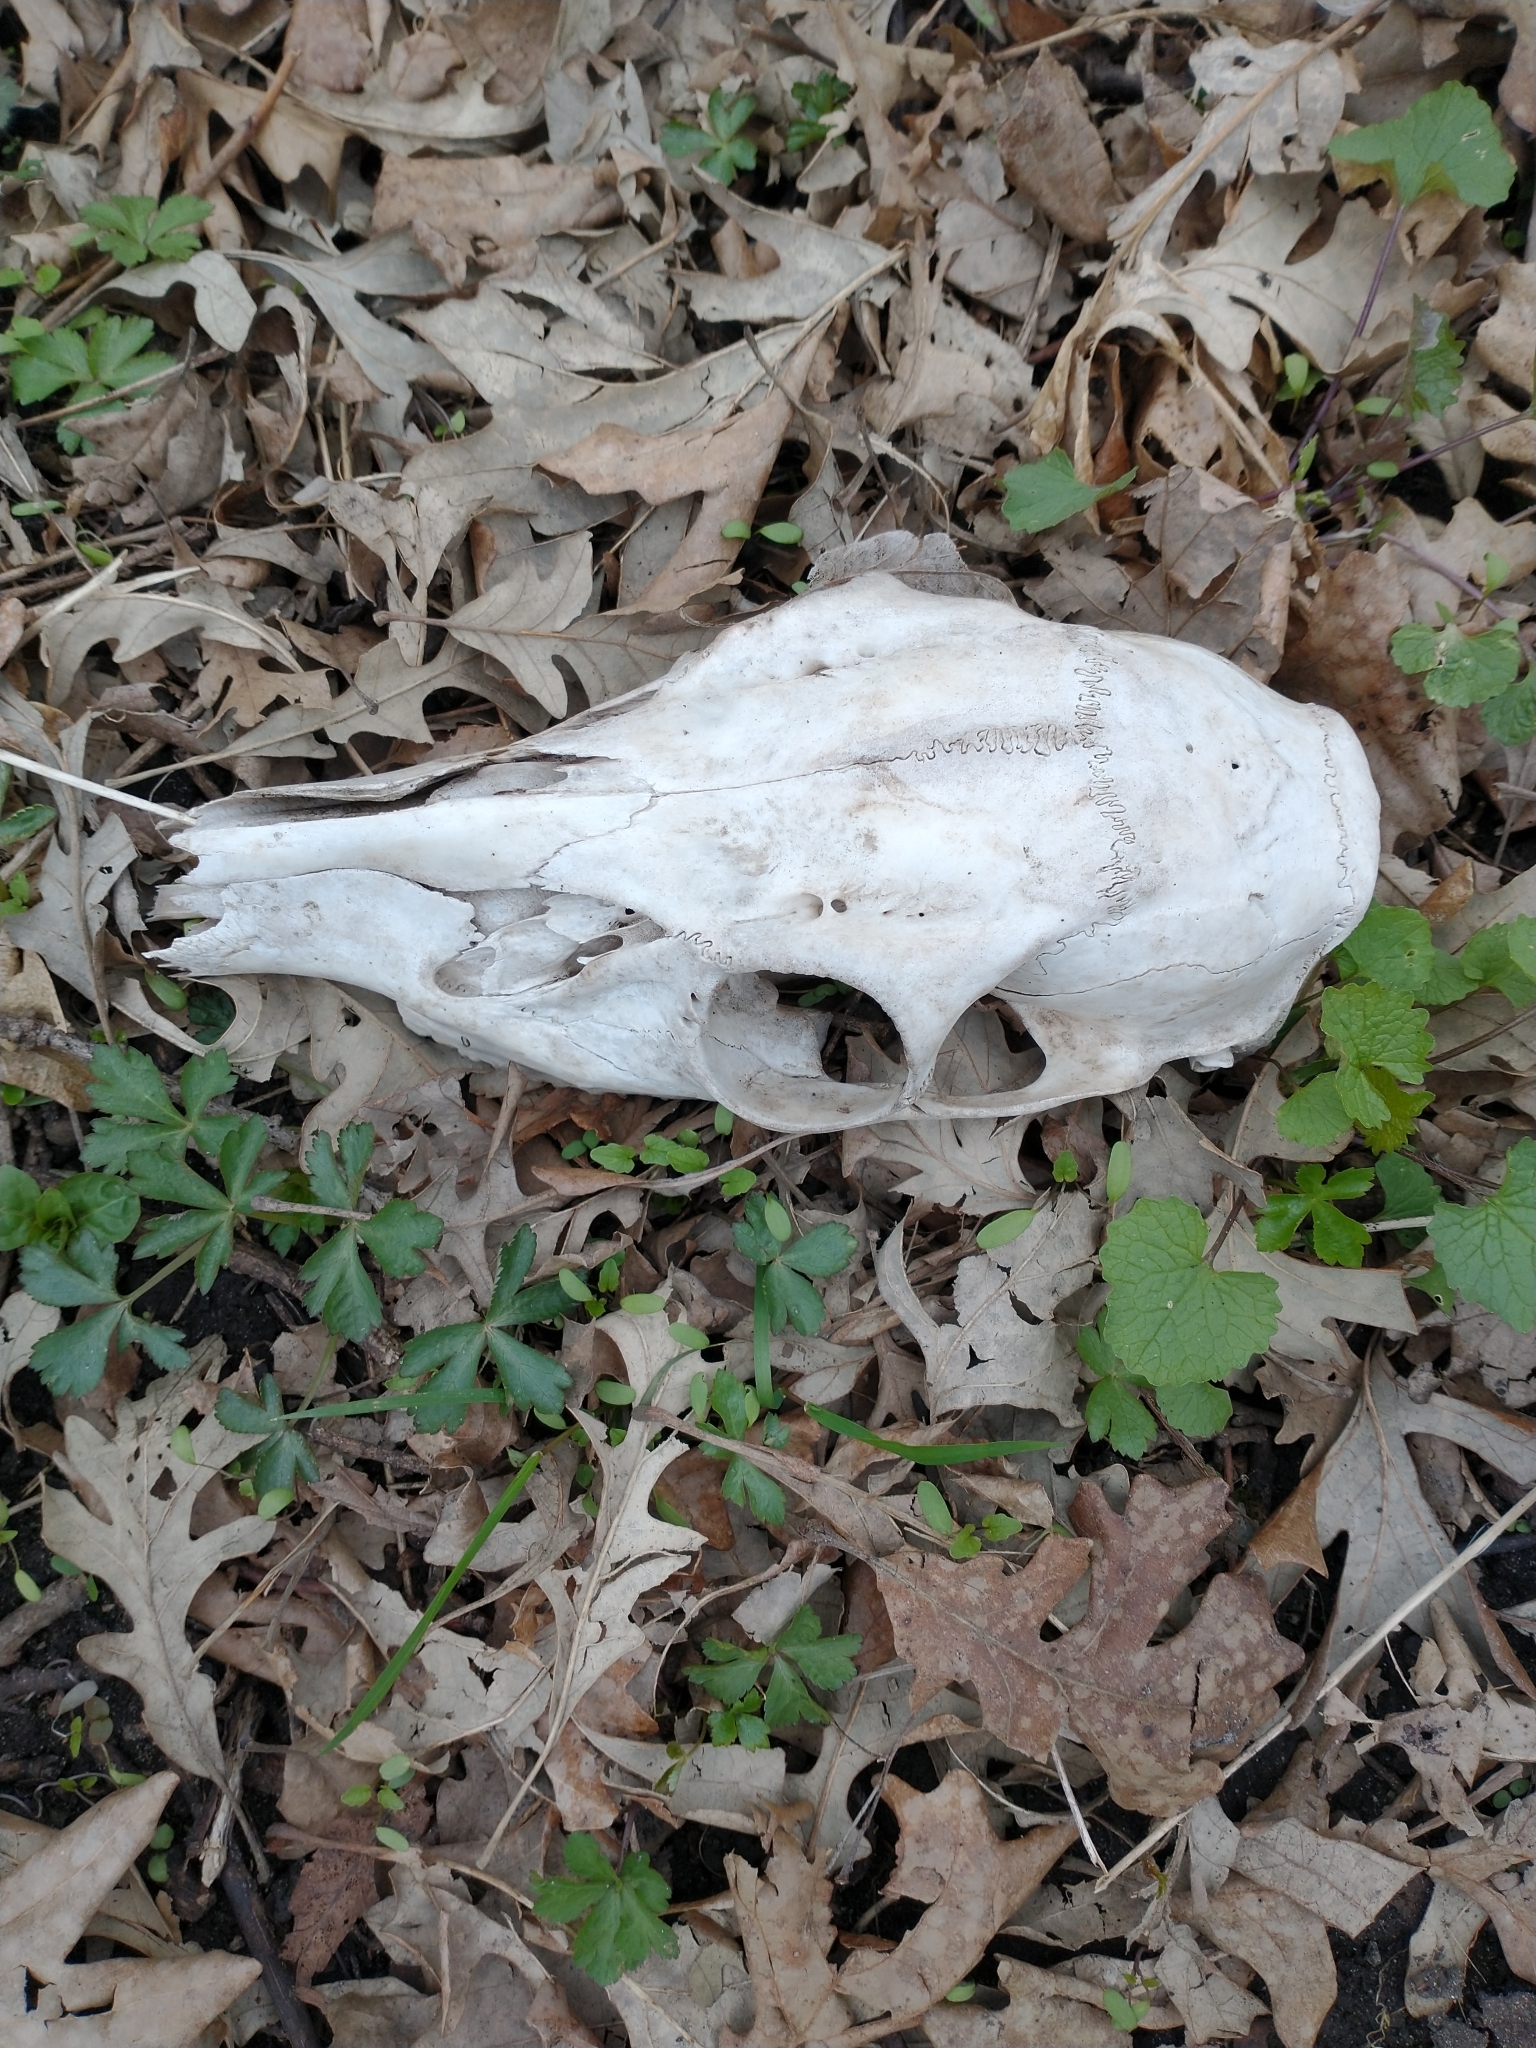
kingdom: Animalia
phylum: Chordata
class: Mammalia
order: Artiodactyla
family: Cervidae
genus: Odocoileus
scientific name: Odocoileus virginianus
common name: White-tailed deer
